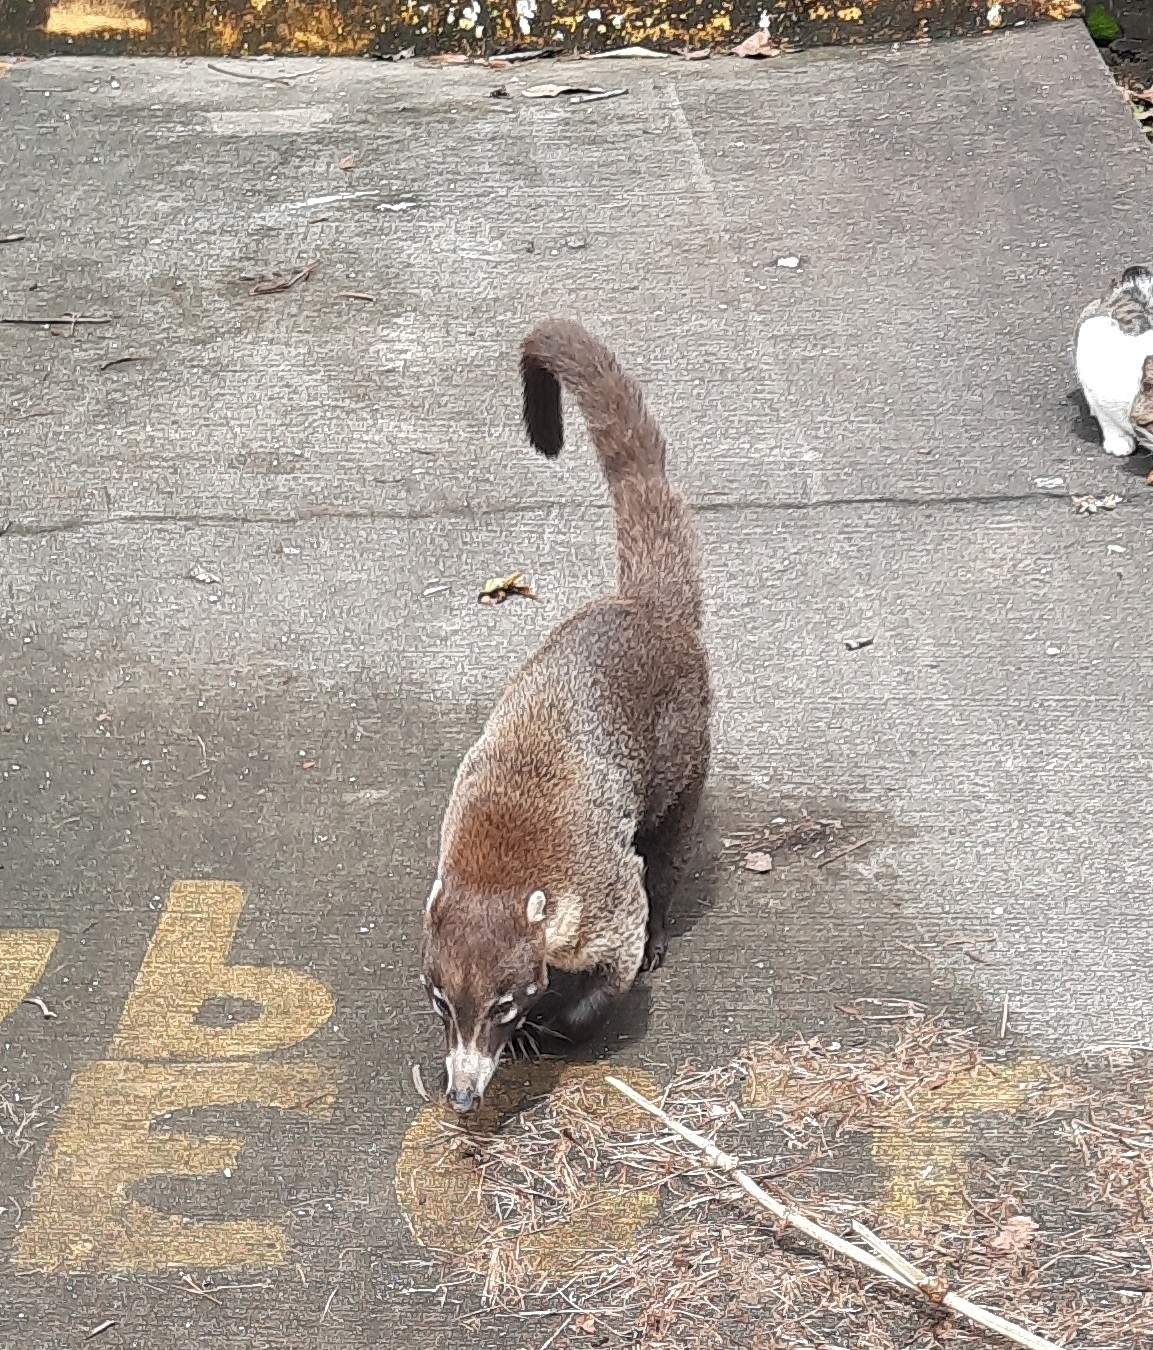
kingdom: Animalia
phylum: Chordata
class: Mammalia
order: Carnivora
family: Procyonidae
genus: Nasua
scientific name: Nasua narica
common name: White-nosed coati
